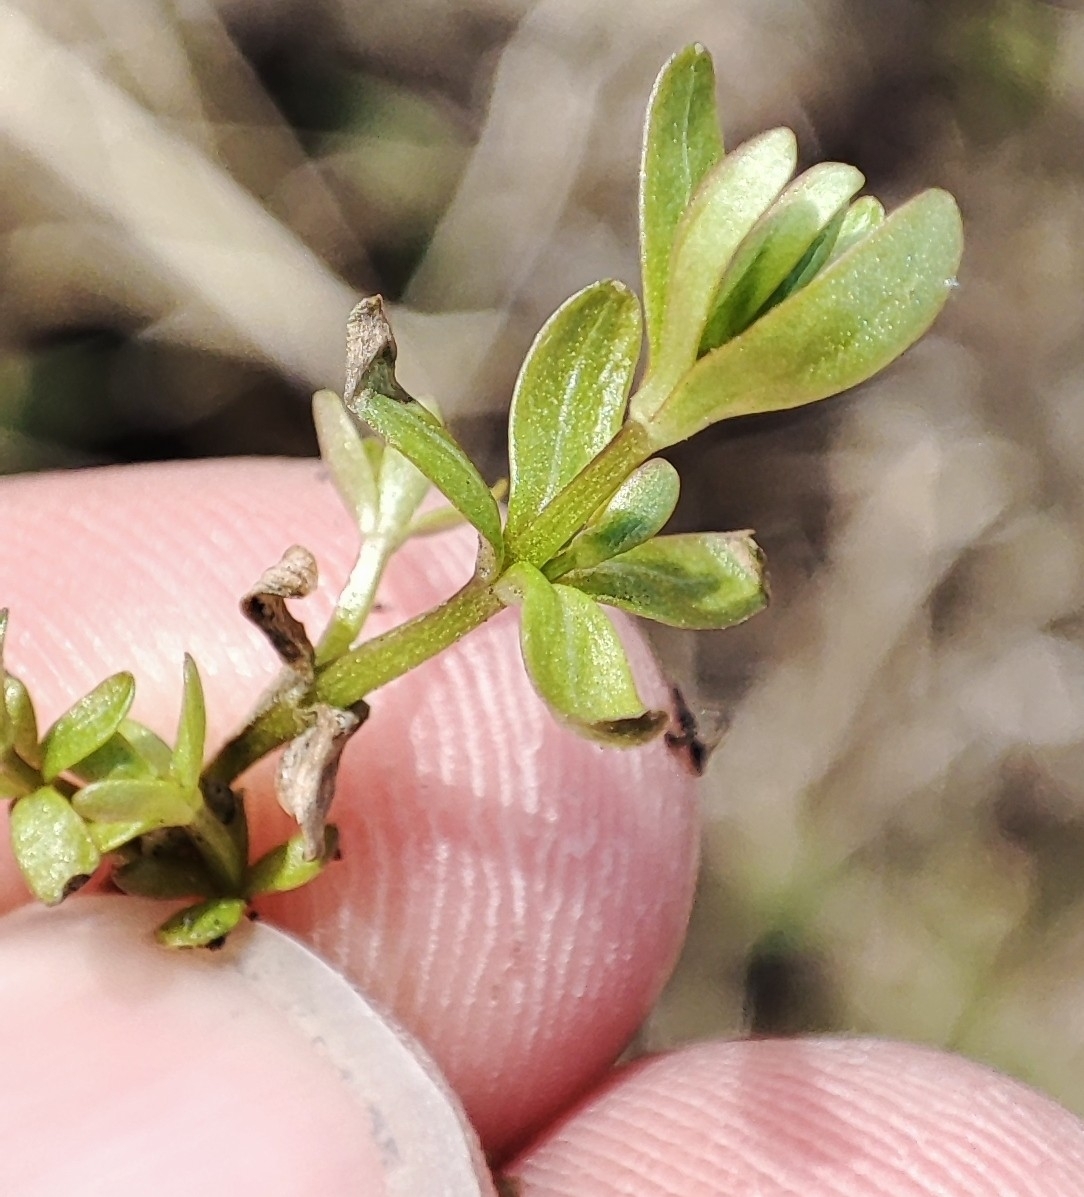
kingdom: Plantae
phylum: Tracheophyta
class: Magnoliopsida
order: Gentianales
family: Rubiaceae
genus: Galium
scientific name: Galium palustre
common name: Common marsh-bedstraw
